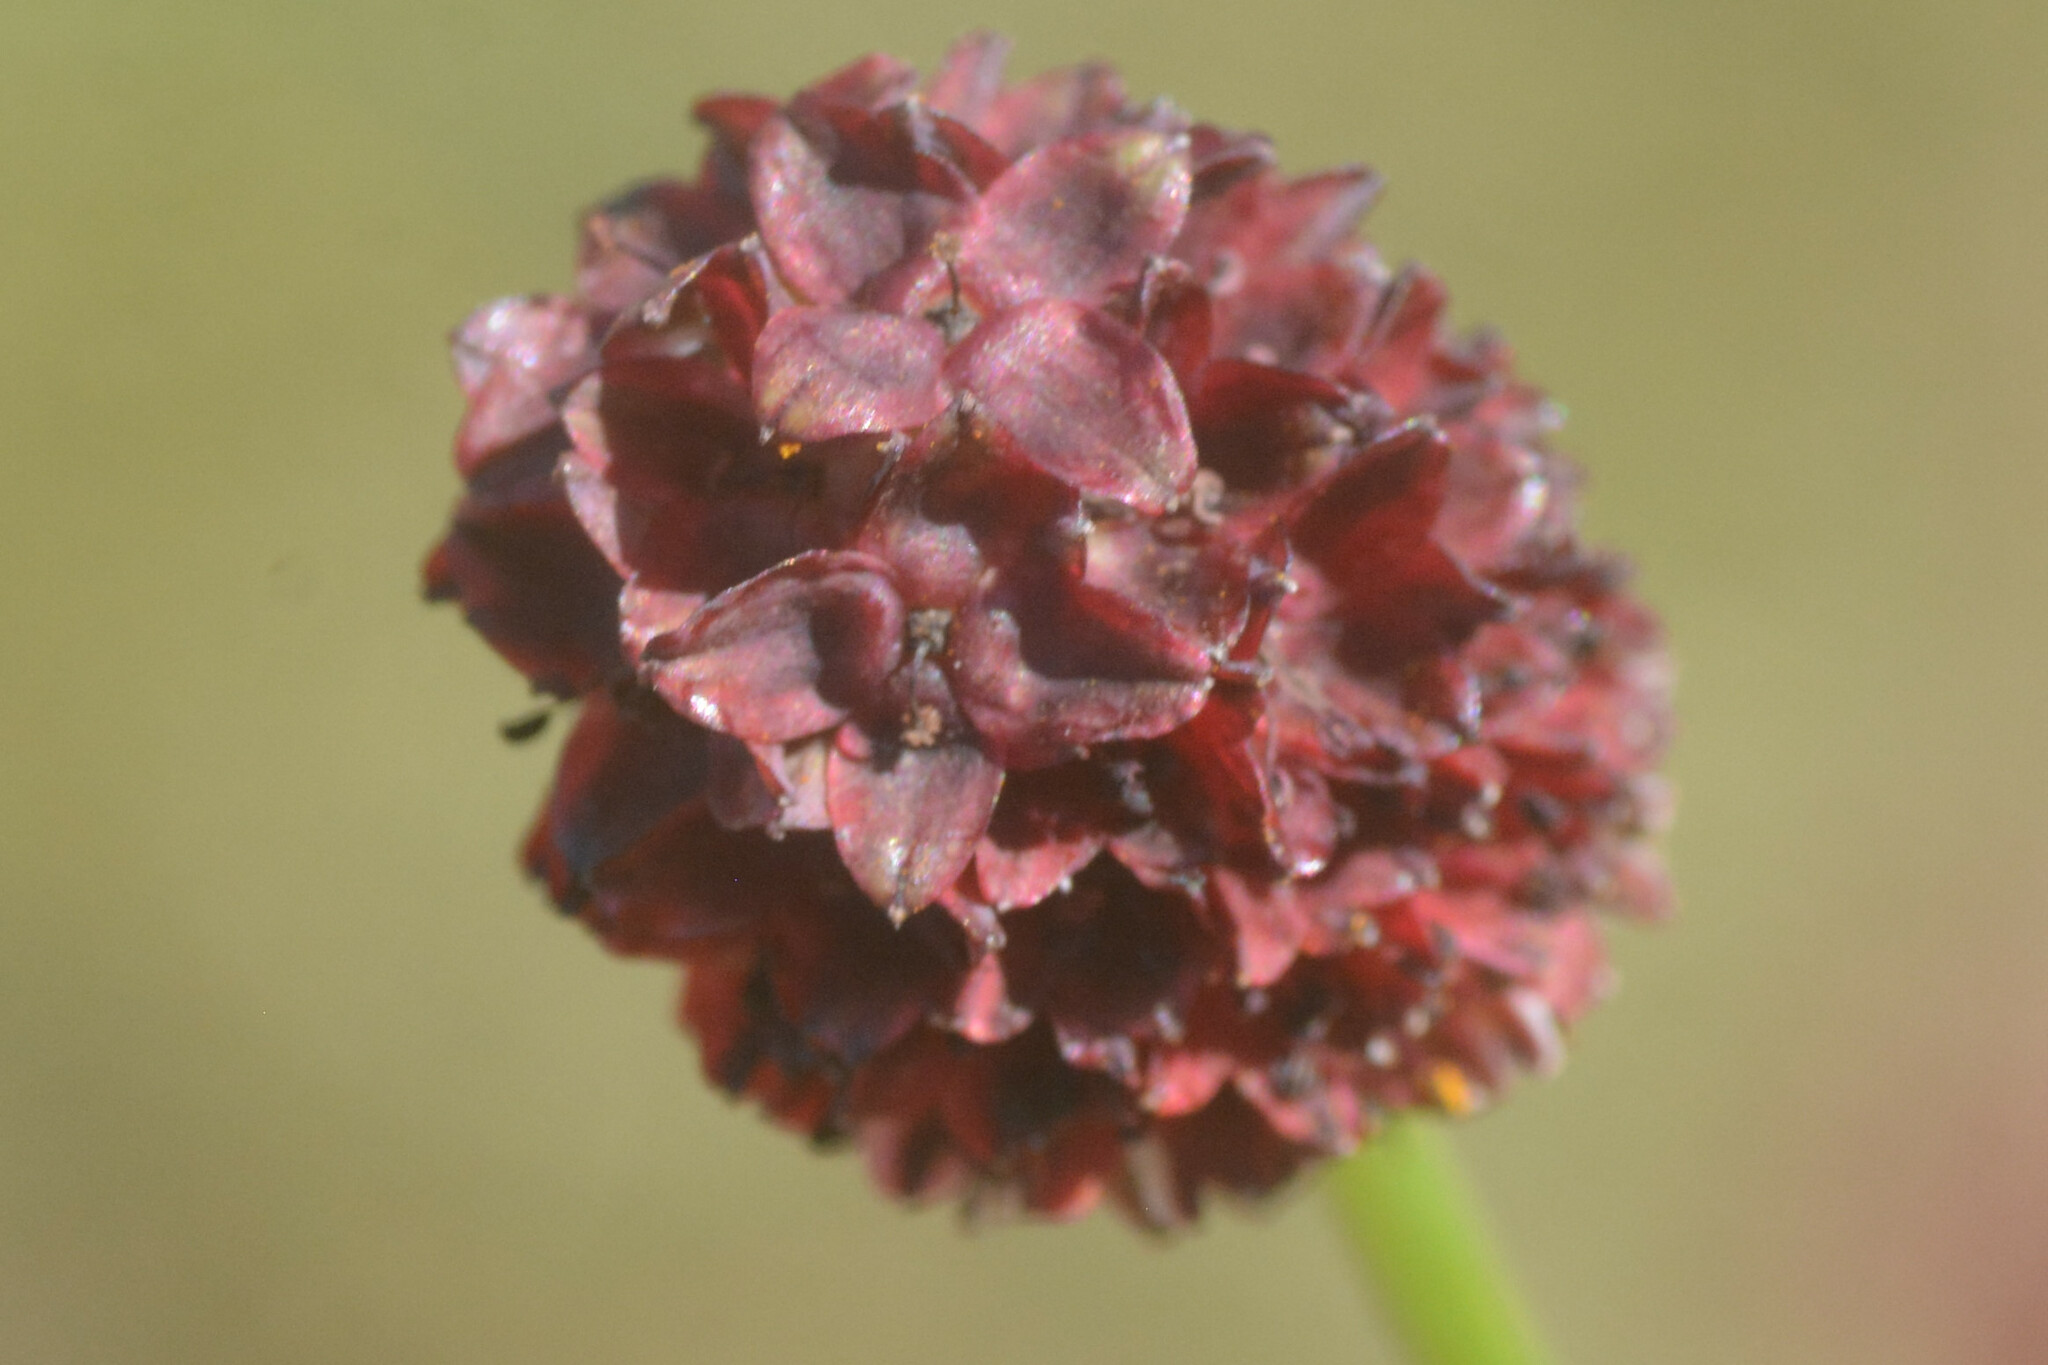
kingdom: Plantae
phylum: Tracheophyta
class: Magnoliopsida
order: Rosales
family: Rosaceae
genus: Sanguisorba
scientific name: Sanguisorba officinalis
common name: Great burnet
